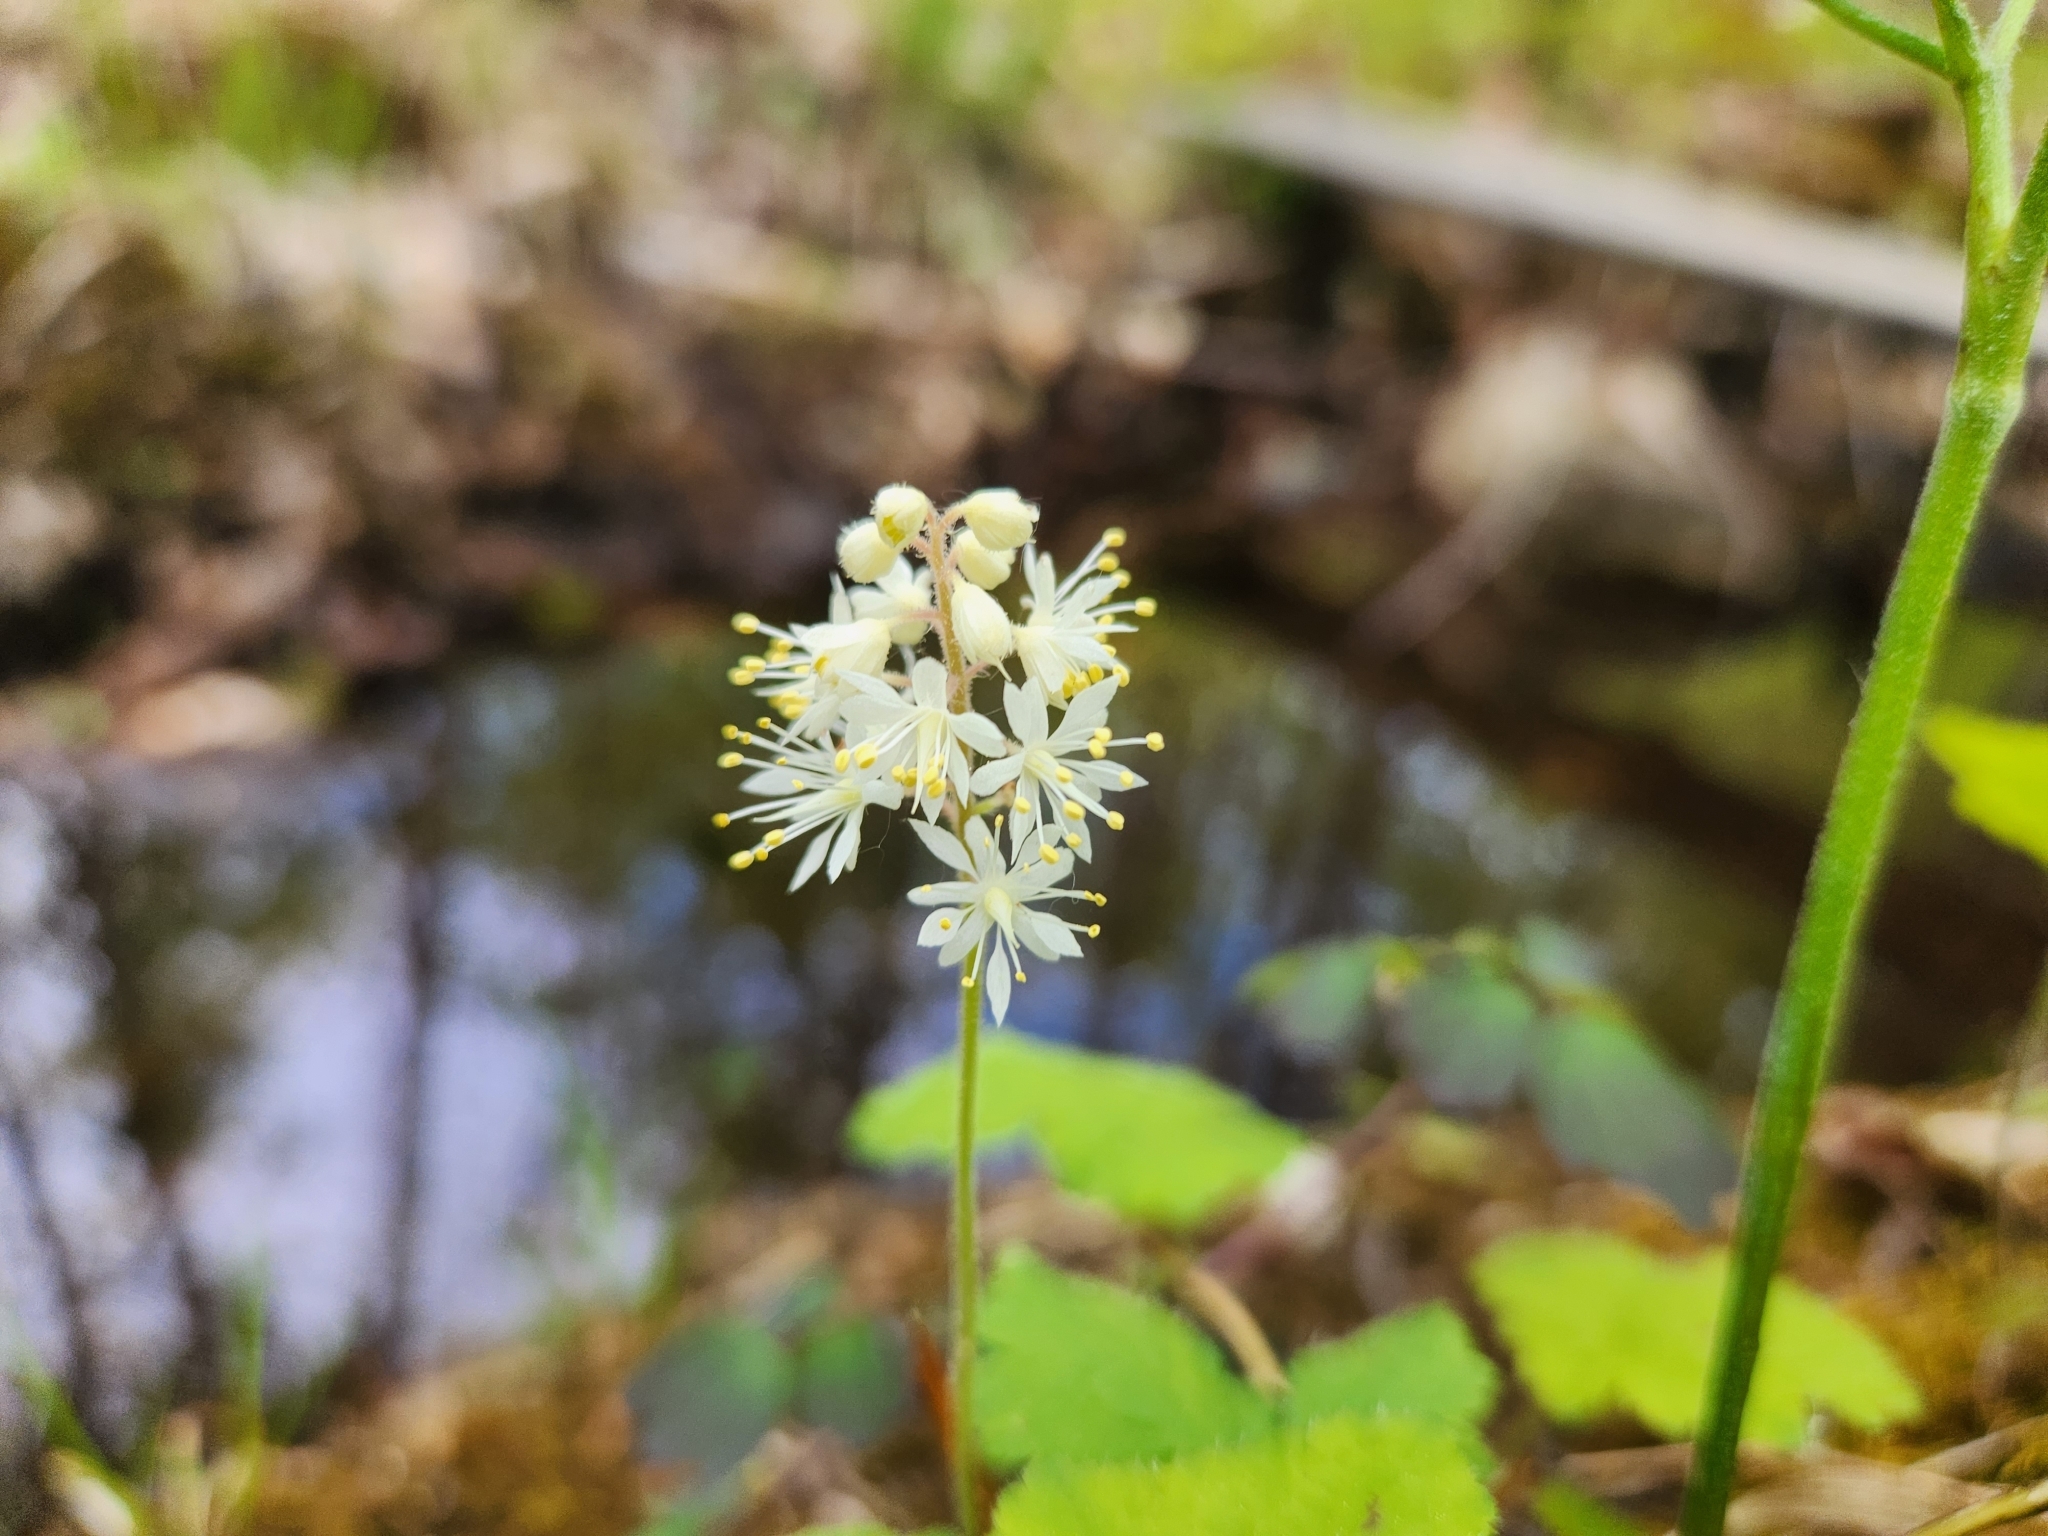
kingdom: Plantae
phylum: Tracheophyta
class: Magnoliopsida
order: Saxifragales
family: Saxifragaceae
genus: Tiarella
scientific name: Tiarella stolonifera
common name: Stoloniferous foamflower
